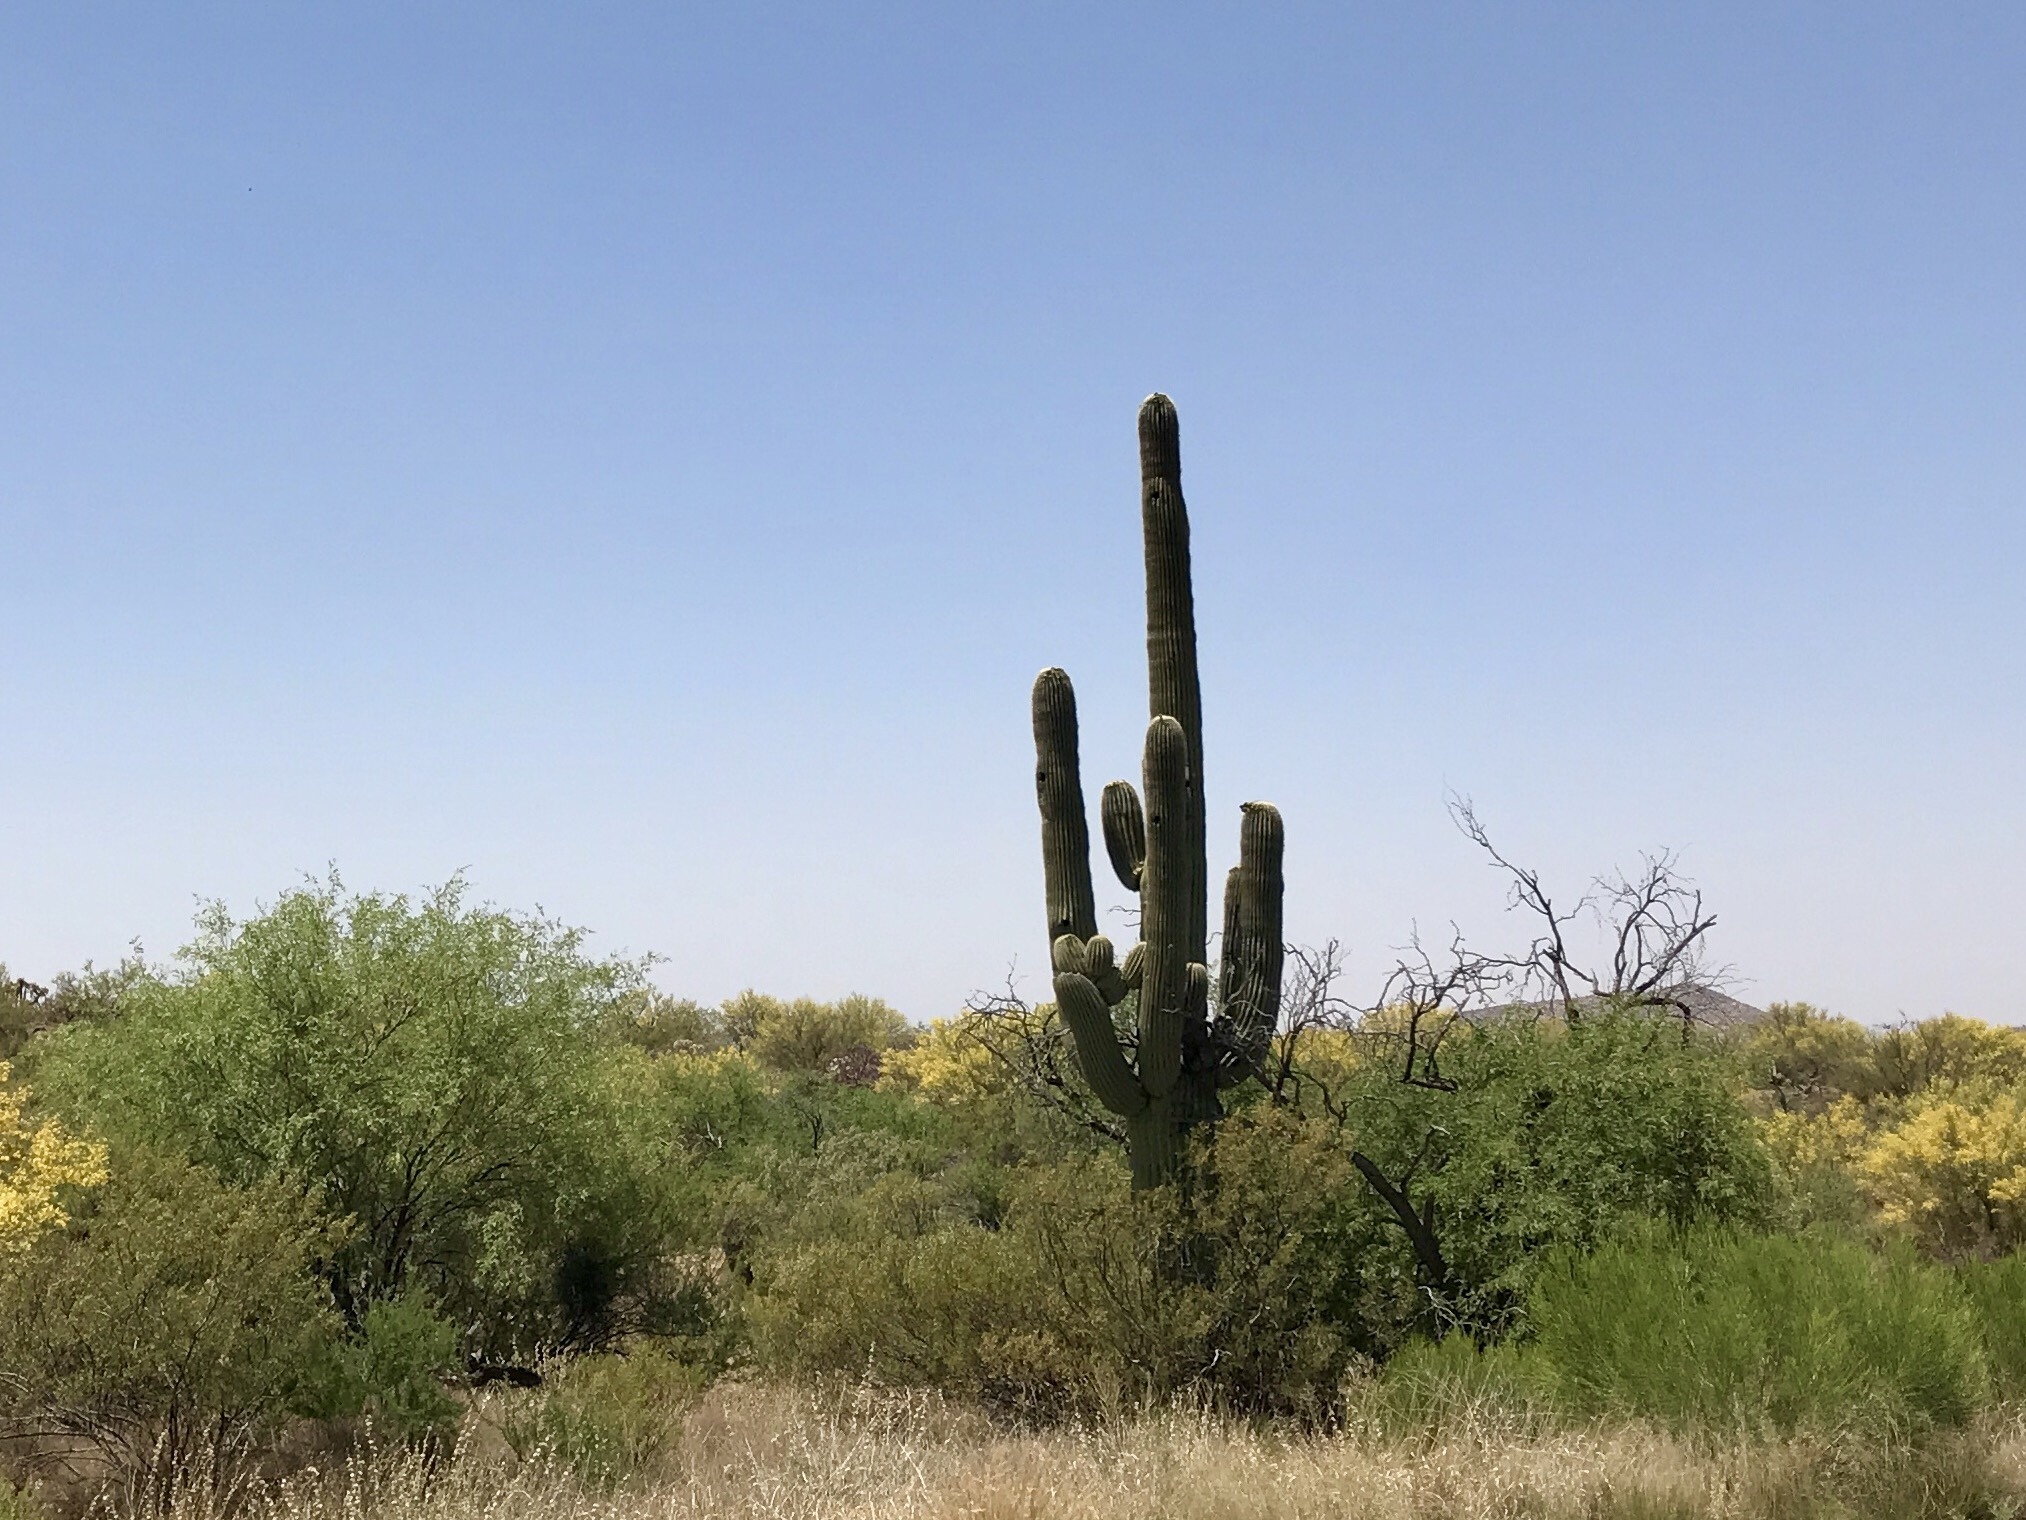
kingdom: Plantae
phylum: Tracheophyta
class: Magnoliopsida
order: Caryophyllales
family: Cactaceae
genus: Carnegiea
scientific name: Carnegiea gigantea
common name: Saguaro
